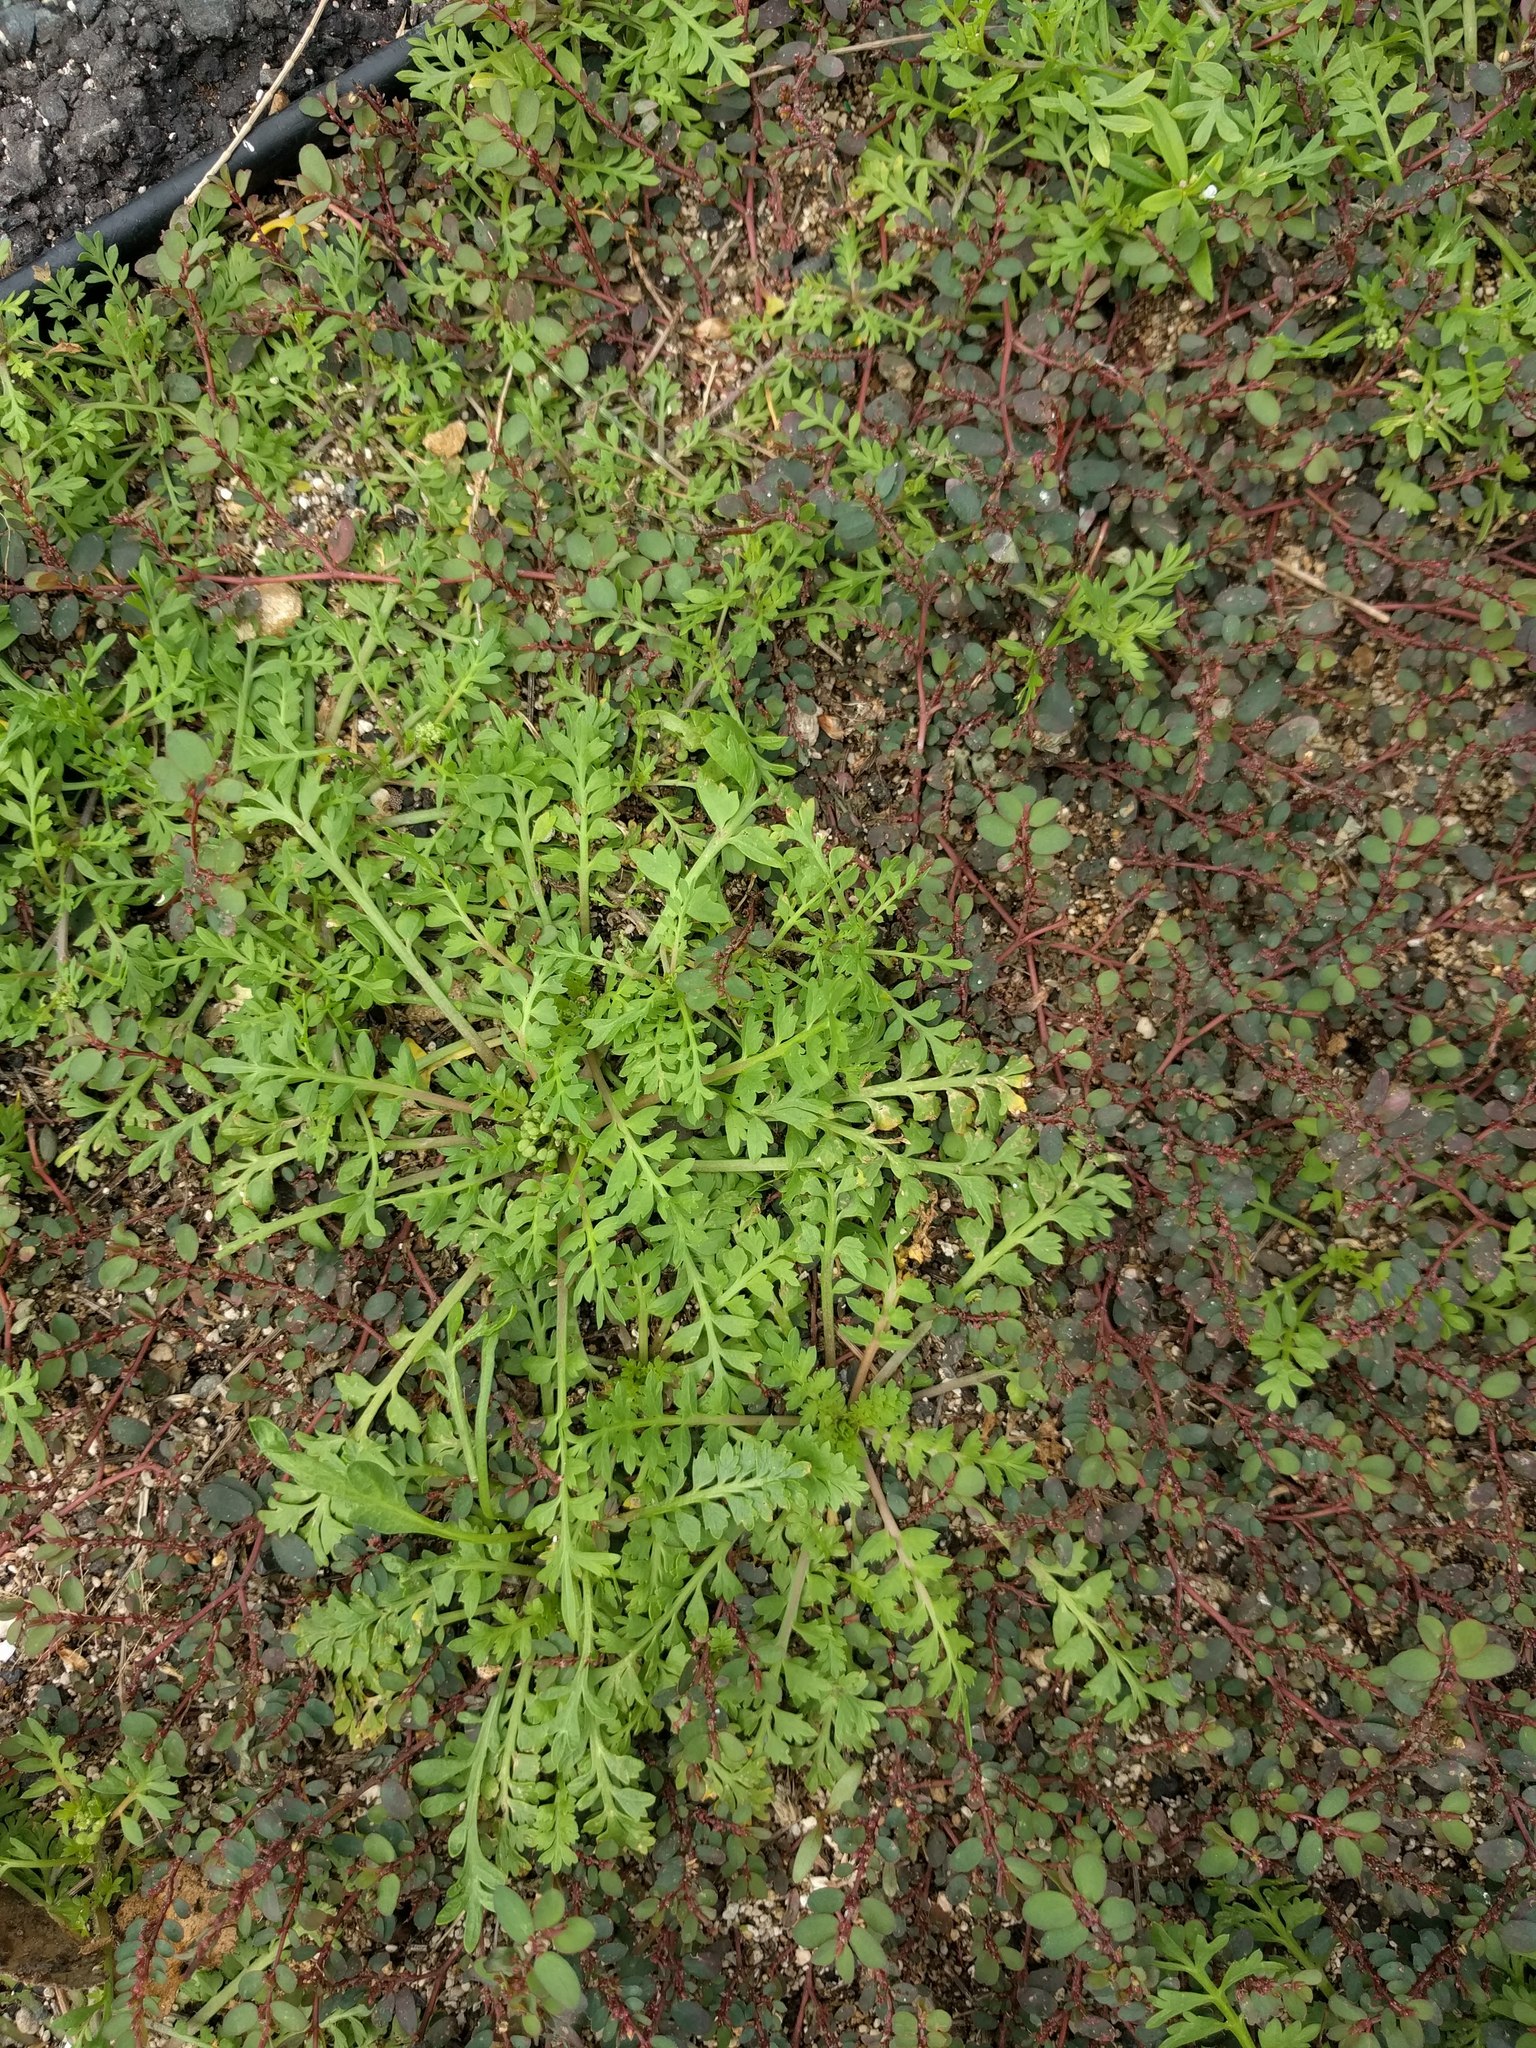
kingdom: Plantae
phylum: Tracheophyta
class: Magnoliopsida
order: Brassicales
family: Brassicaceae
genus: Lepidium
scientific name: Lepidium didymum
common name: Lesser swinecress
